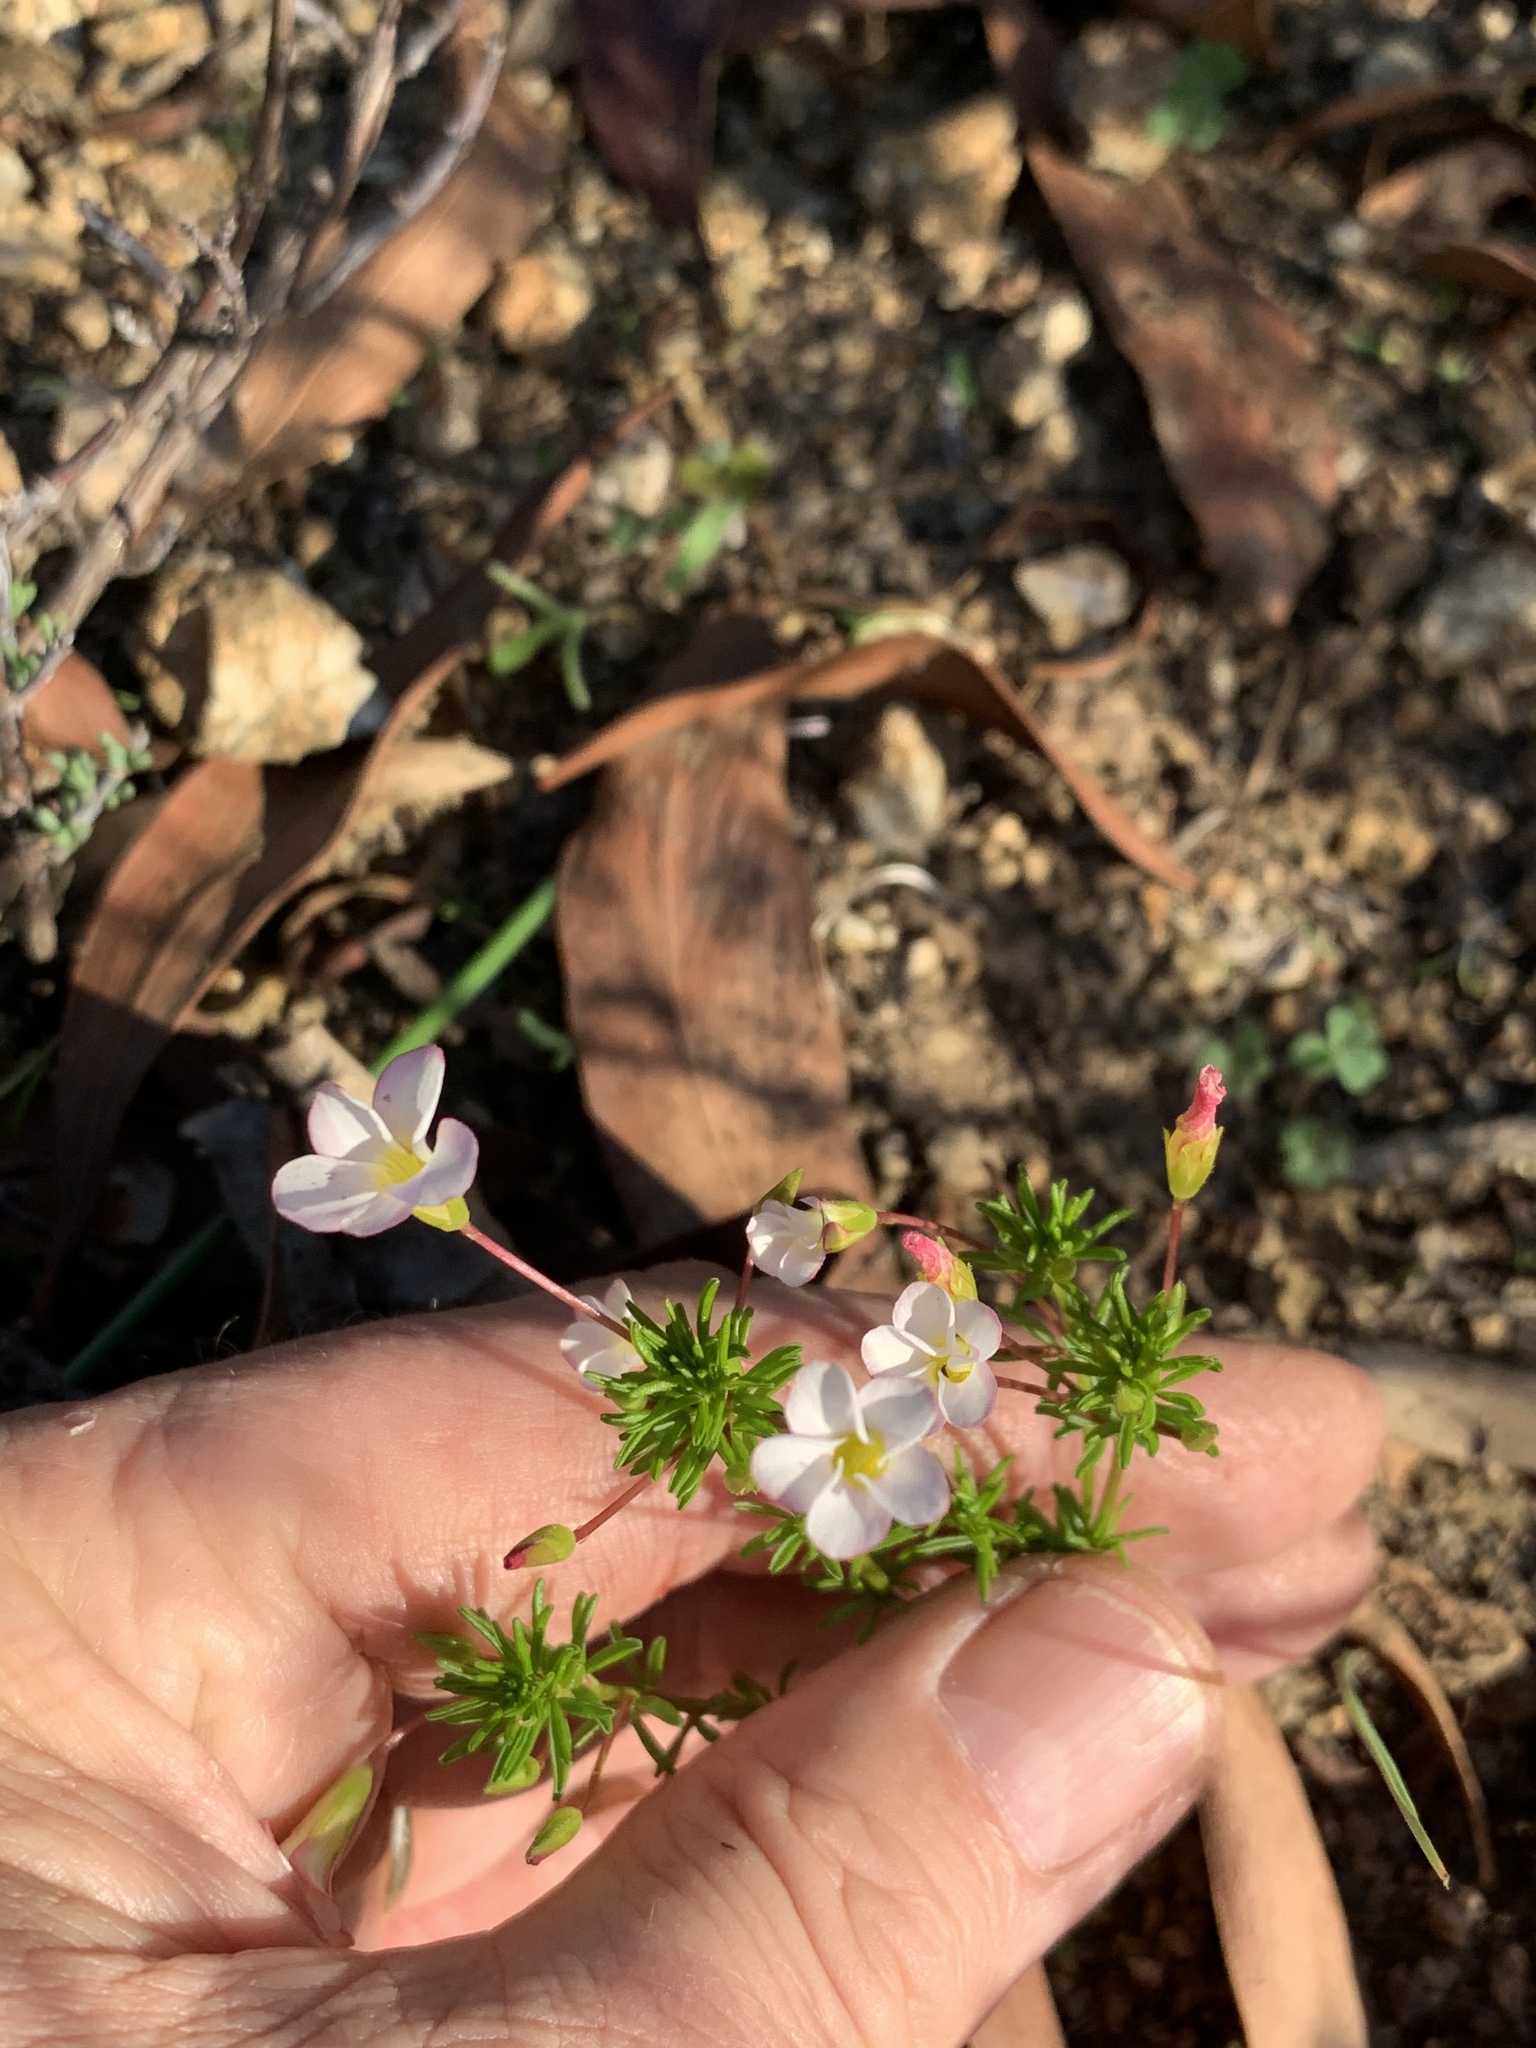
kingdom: Plantae
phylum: Tracheophyta
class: Magnoliopsida
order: Oxalidales
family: Oxalidaceae
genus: Oxalis
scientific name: Oxalis tenuifolia
